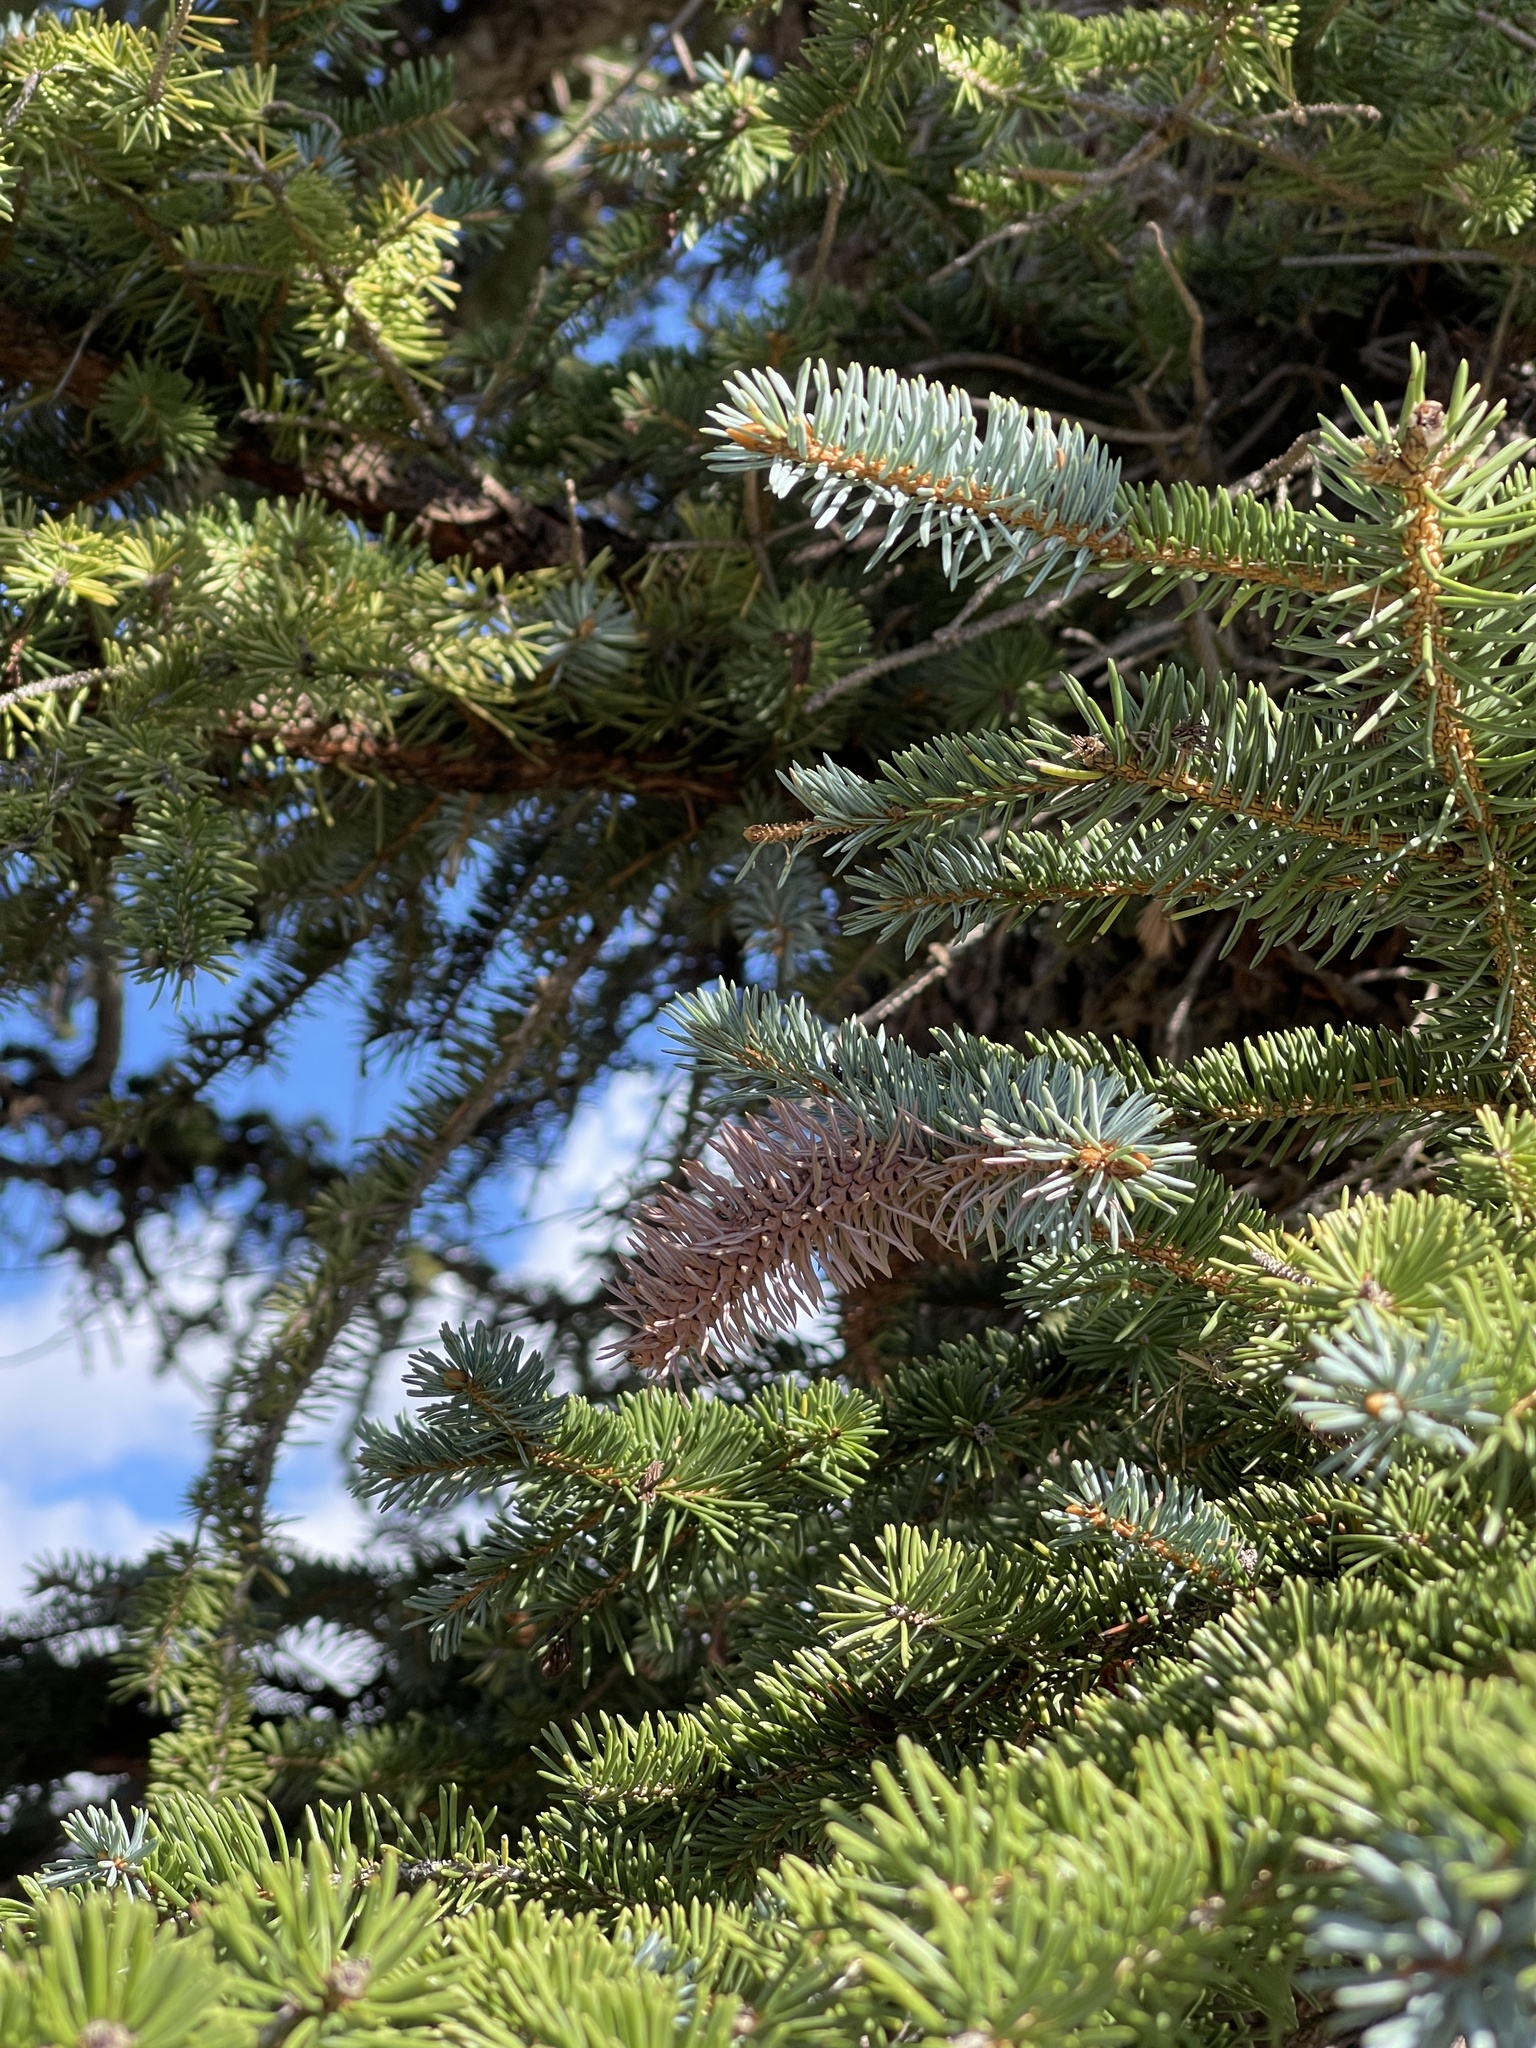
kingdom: Plantae
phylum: Tracheophyta
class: Pinopsida
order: Pinales
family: Pinaceae
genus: Picea
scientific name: Picea engelmannii
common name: Engelmann spruce
